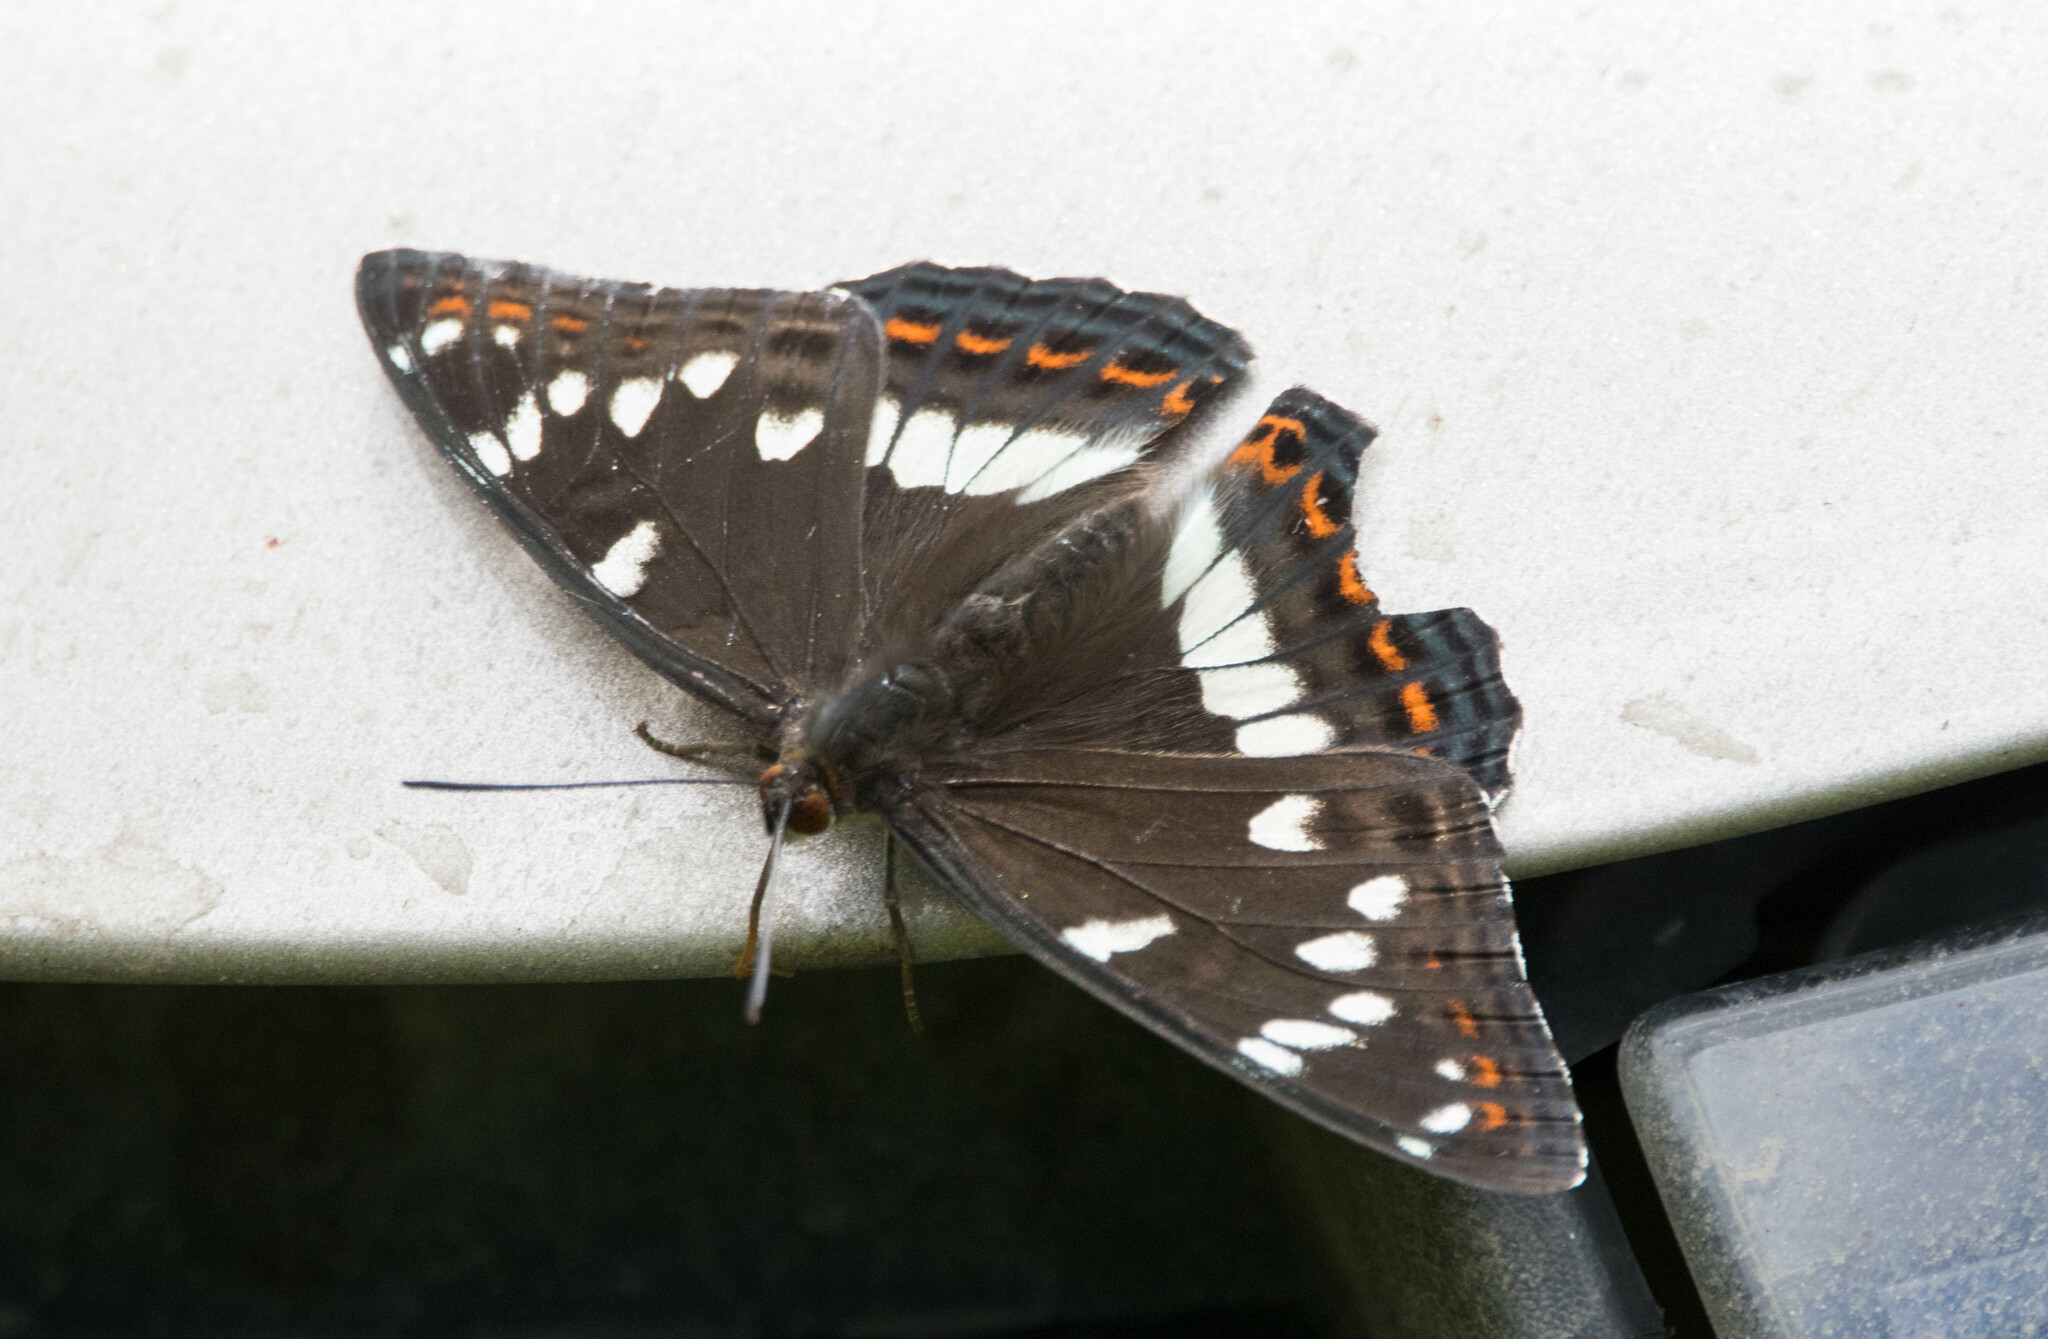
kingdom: Animalia
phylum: Arthropoda
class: Insecta
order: Lepidoptera
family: Nymphalidae
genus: Limenitis
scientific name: Limenitis populi
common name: Poplar admiral
